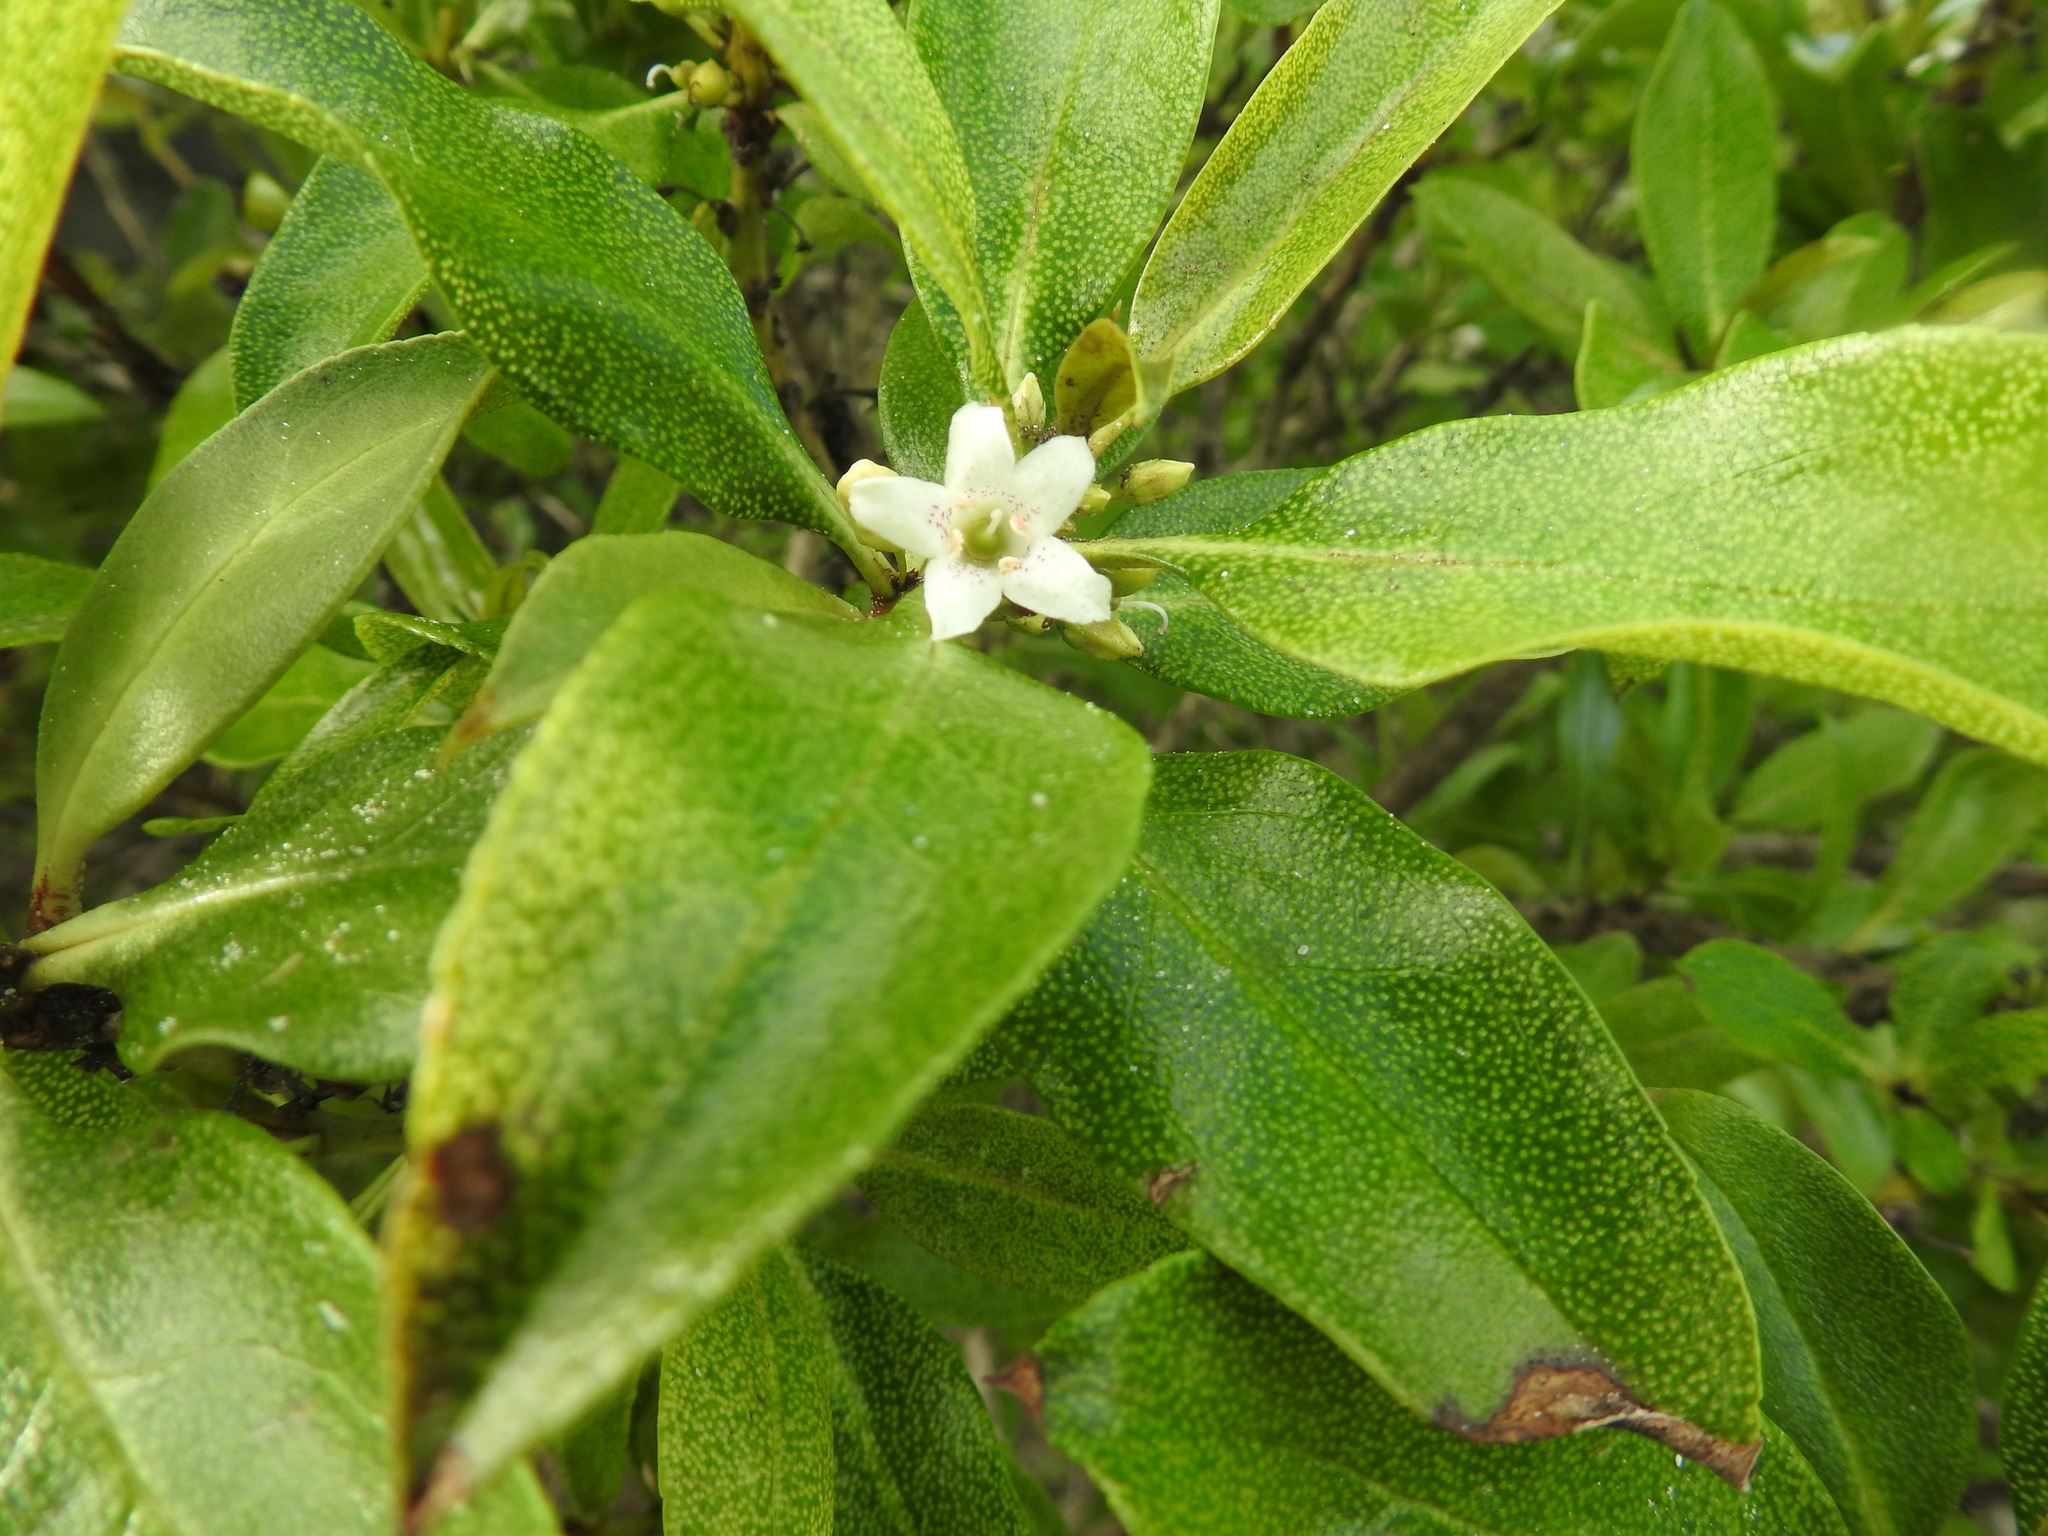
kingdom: Plantae
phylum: Tracheophyta
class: Magnoliopsida
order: Lamiales
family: Scrophulariaceae
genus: Myoporum
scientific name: Myoporum laetum
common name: Ngaio tree
